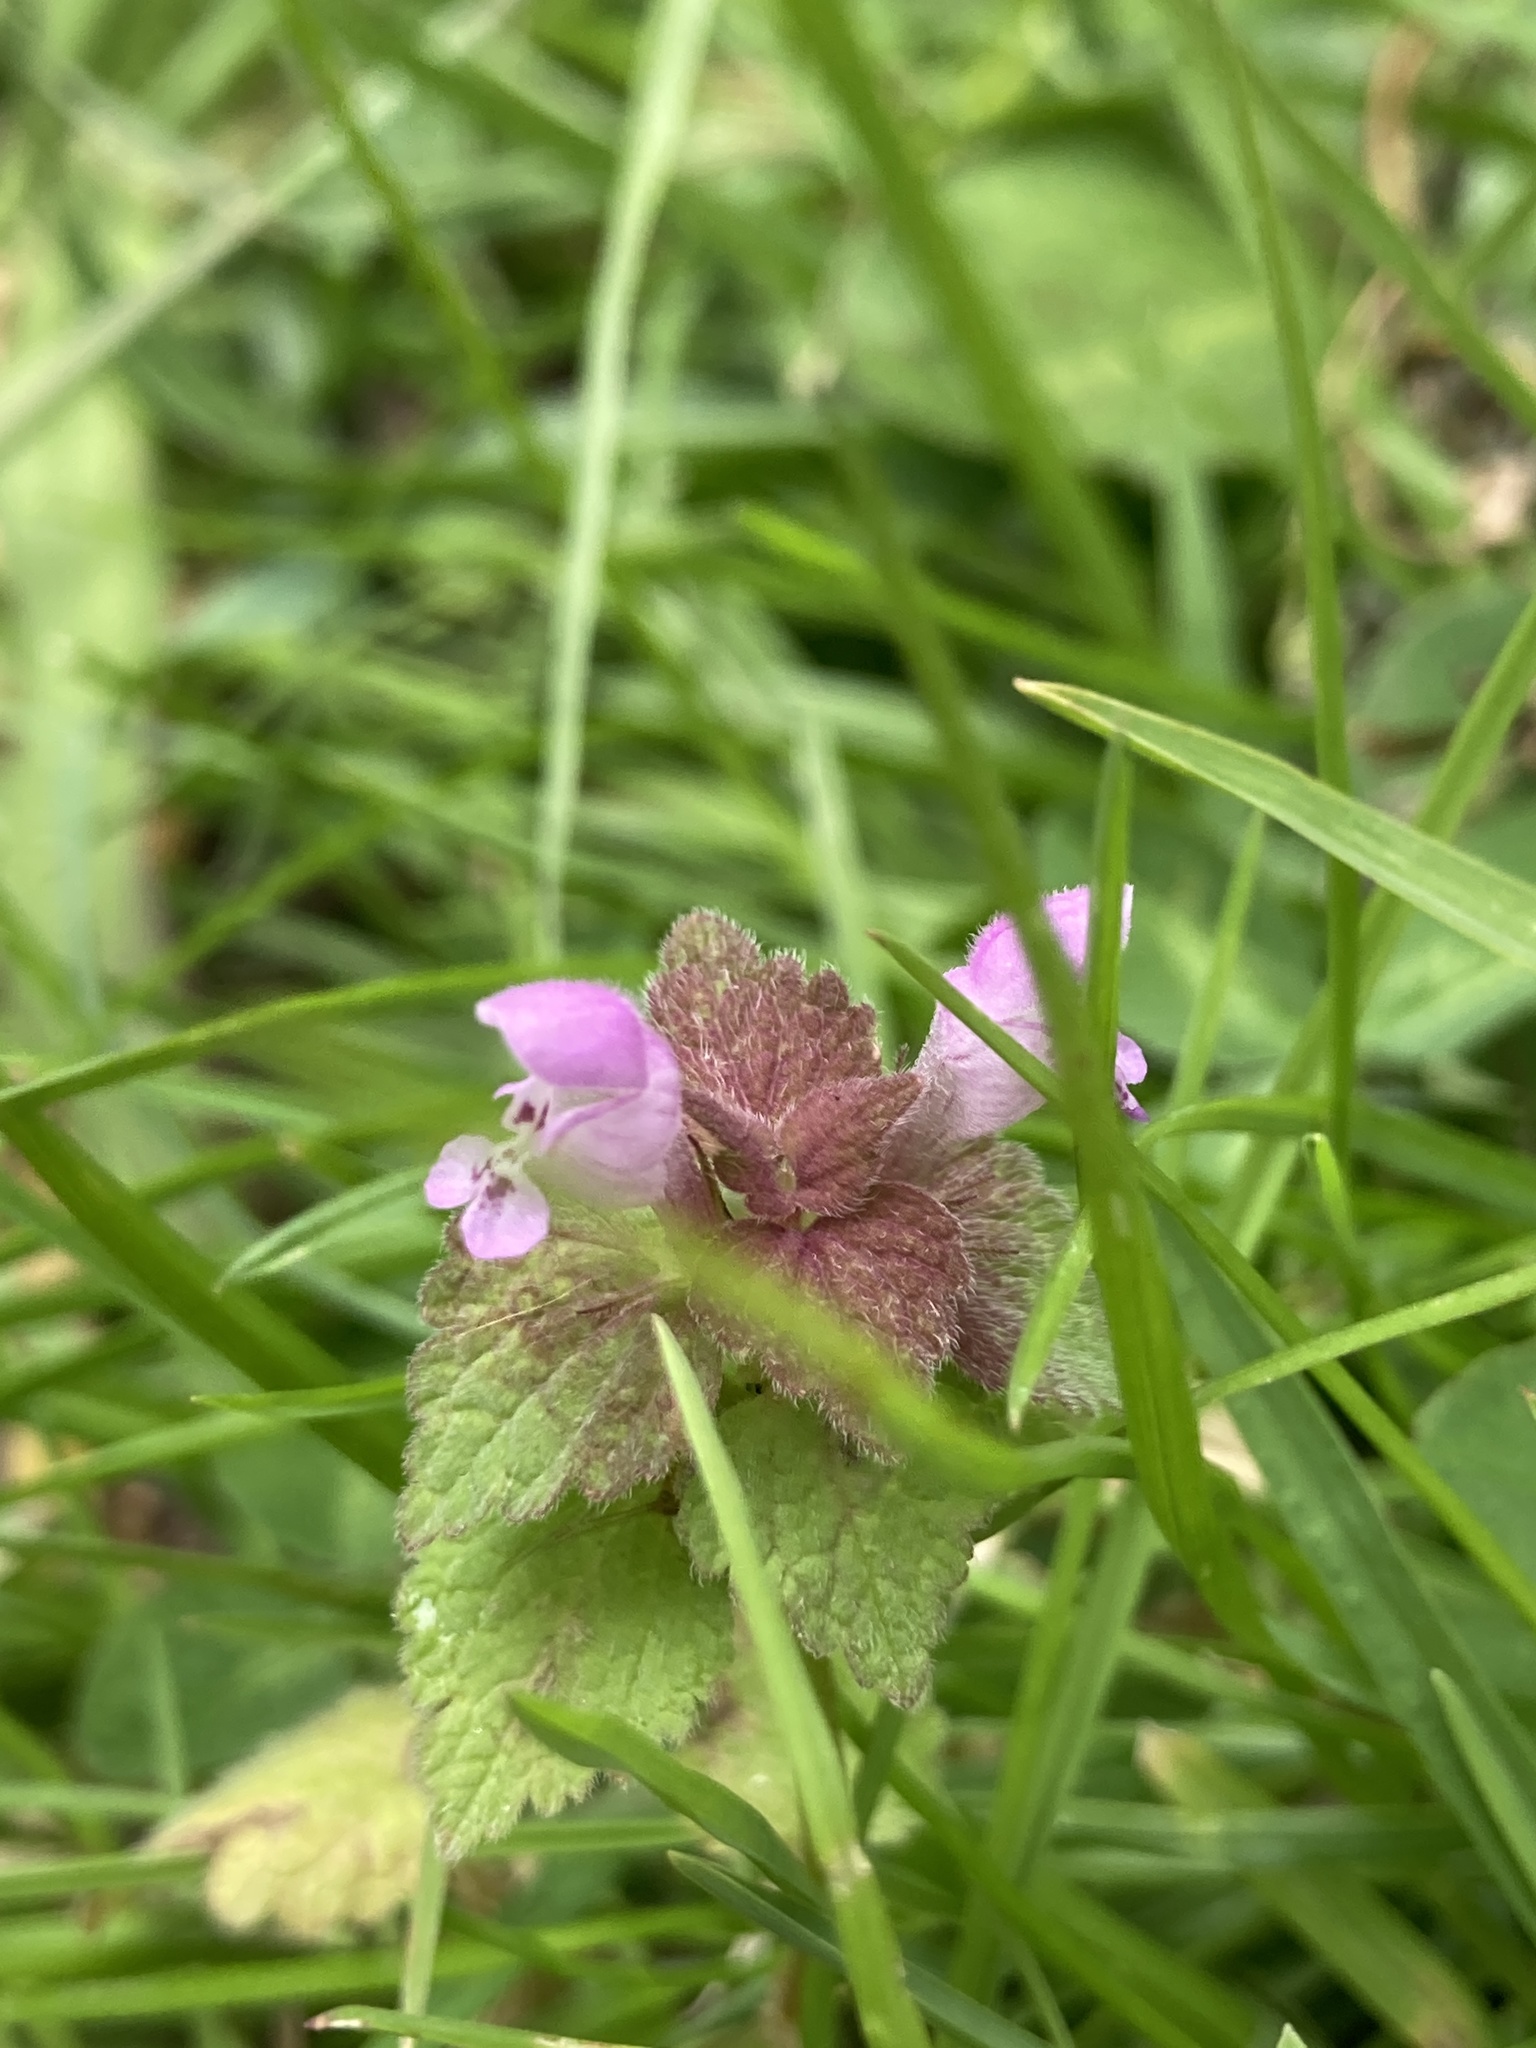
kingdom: Plantae
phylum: Tracheophyta
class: Magnoliopsida
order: Lamiales
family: Lamiaceae
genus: Lamium
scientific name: Lamium purpureum
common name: Red dead-nettle
